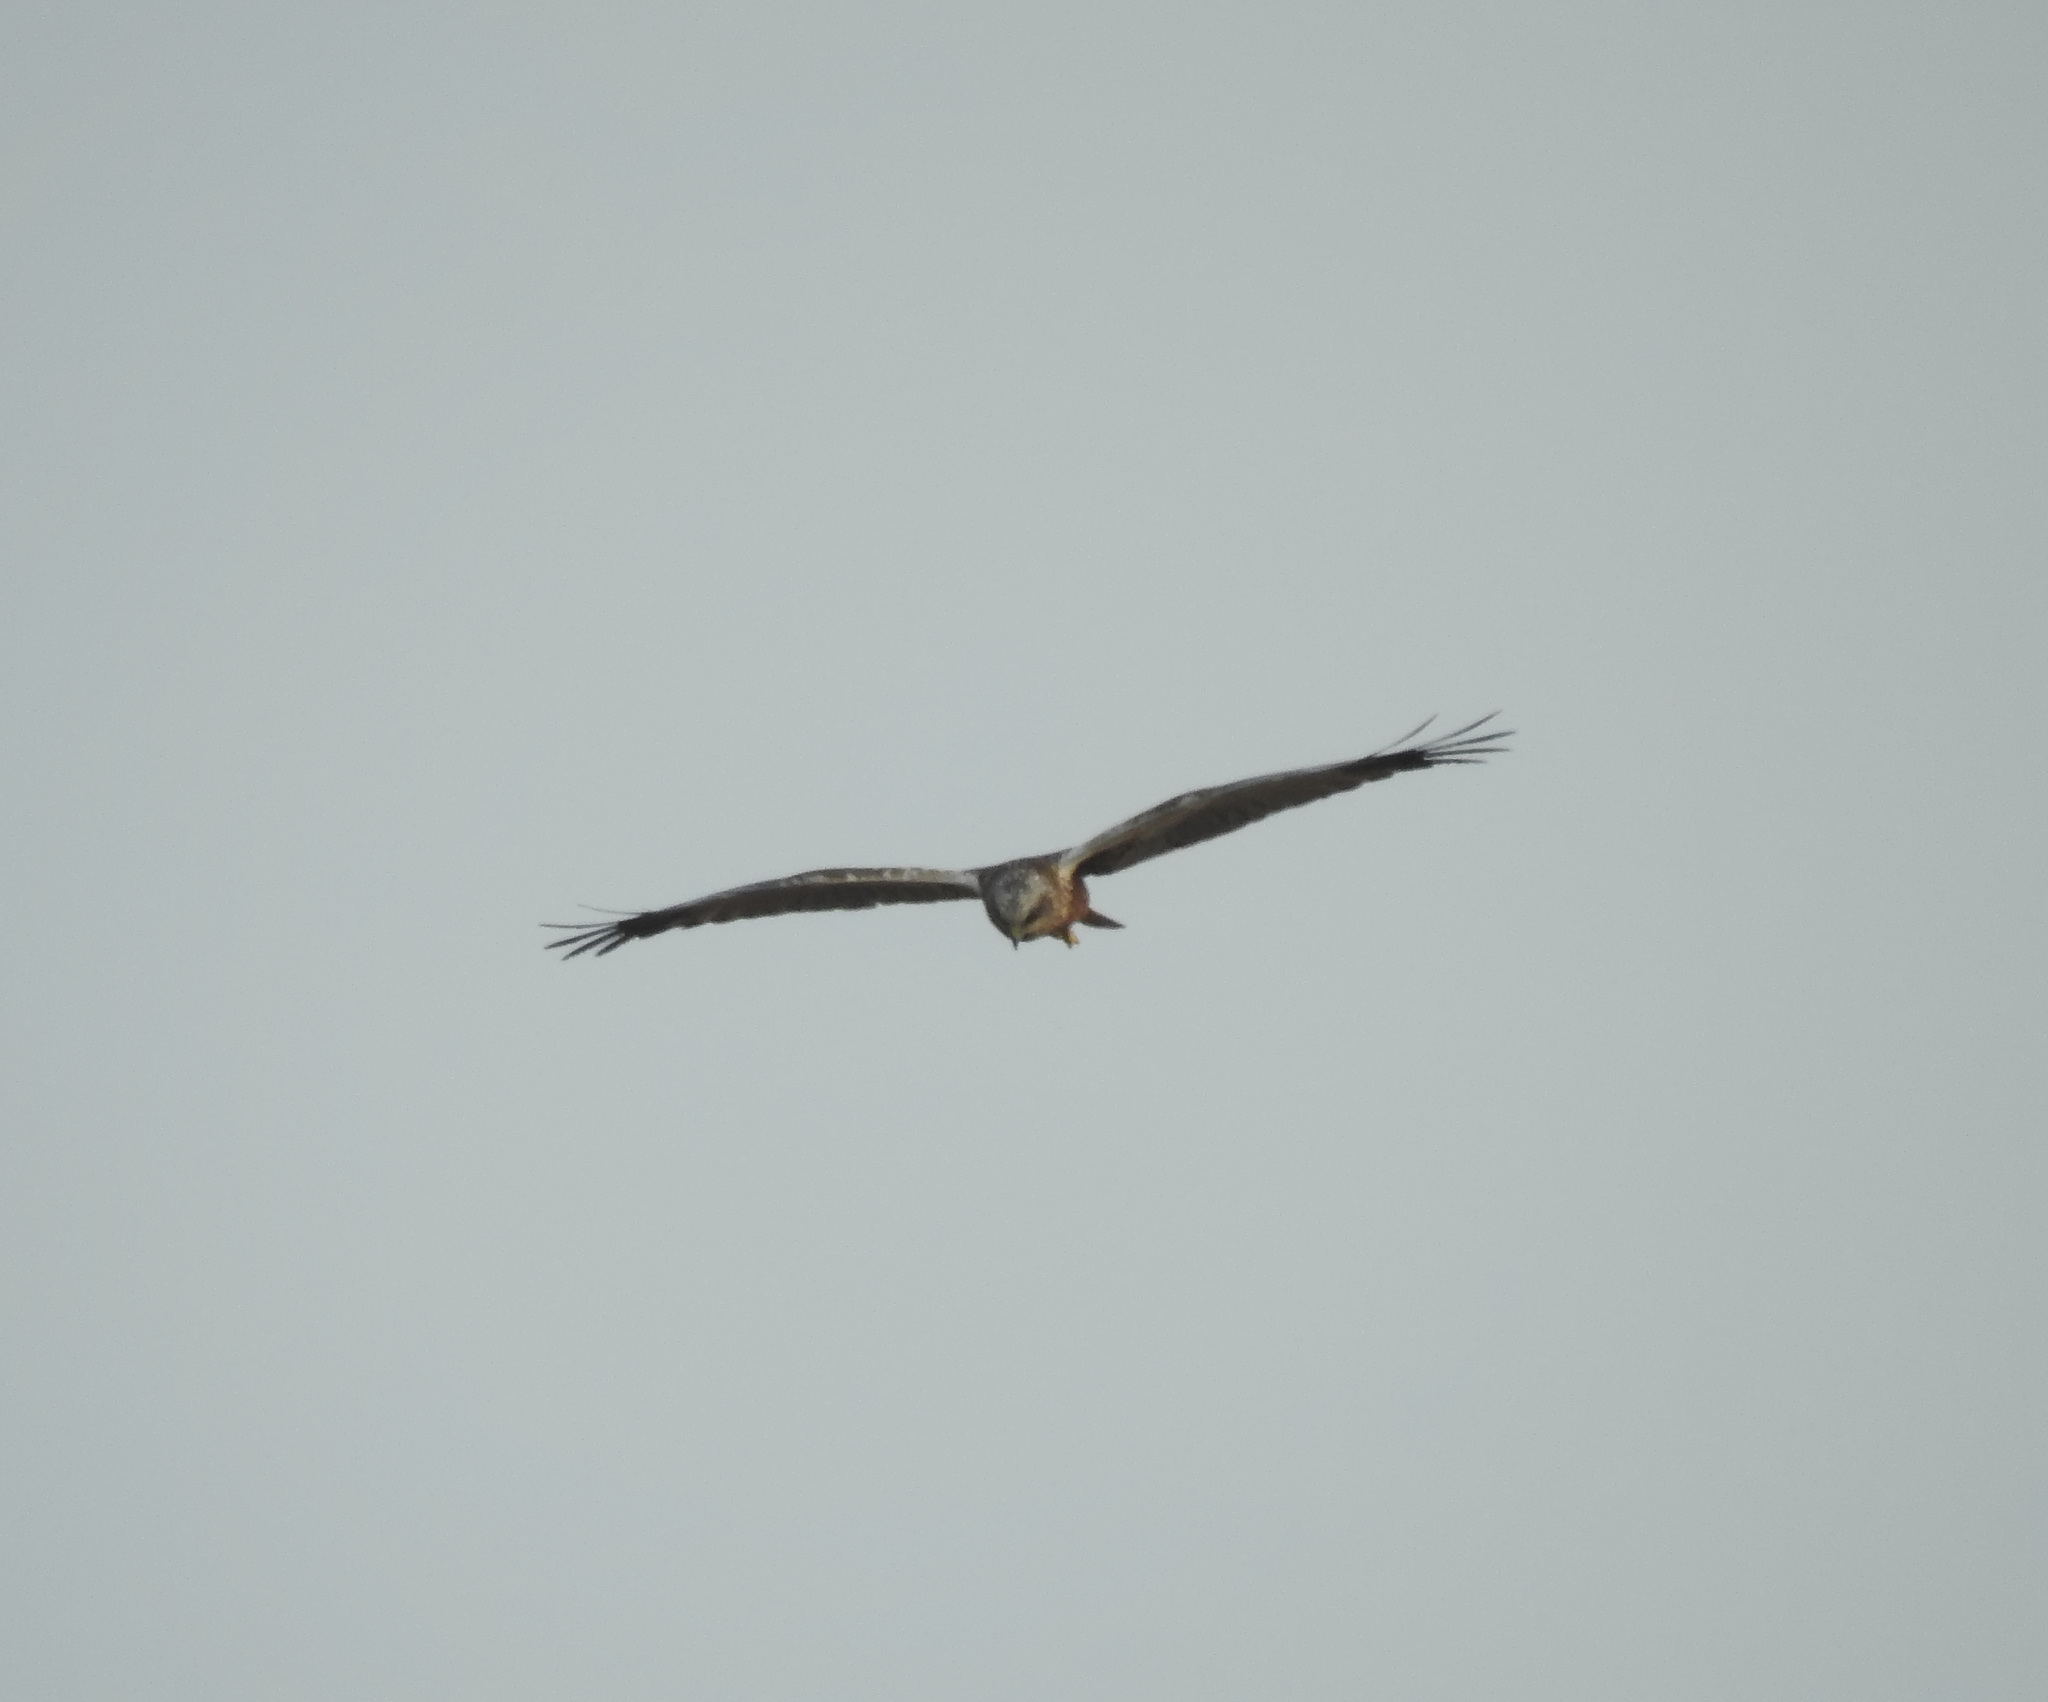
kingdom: Animalia
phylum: Chordata
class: Aves
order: Accipitriformes
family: Accipitridae
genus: Circus
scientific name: Circus aeruginosus
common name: Western marsh harrier
